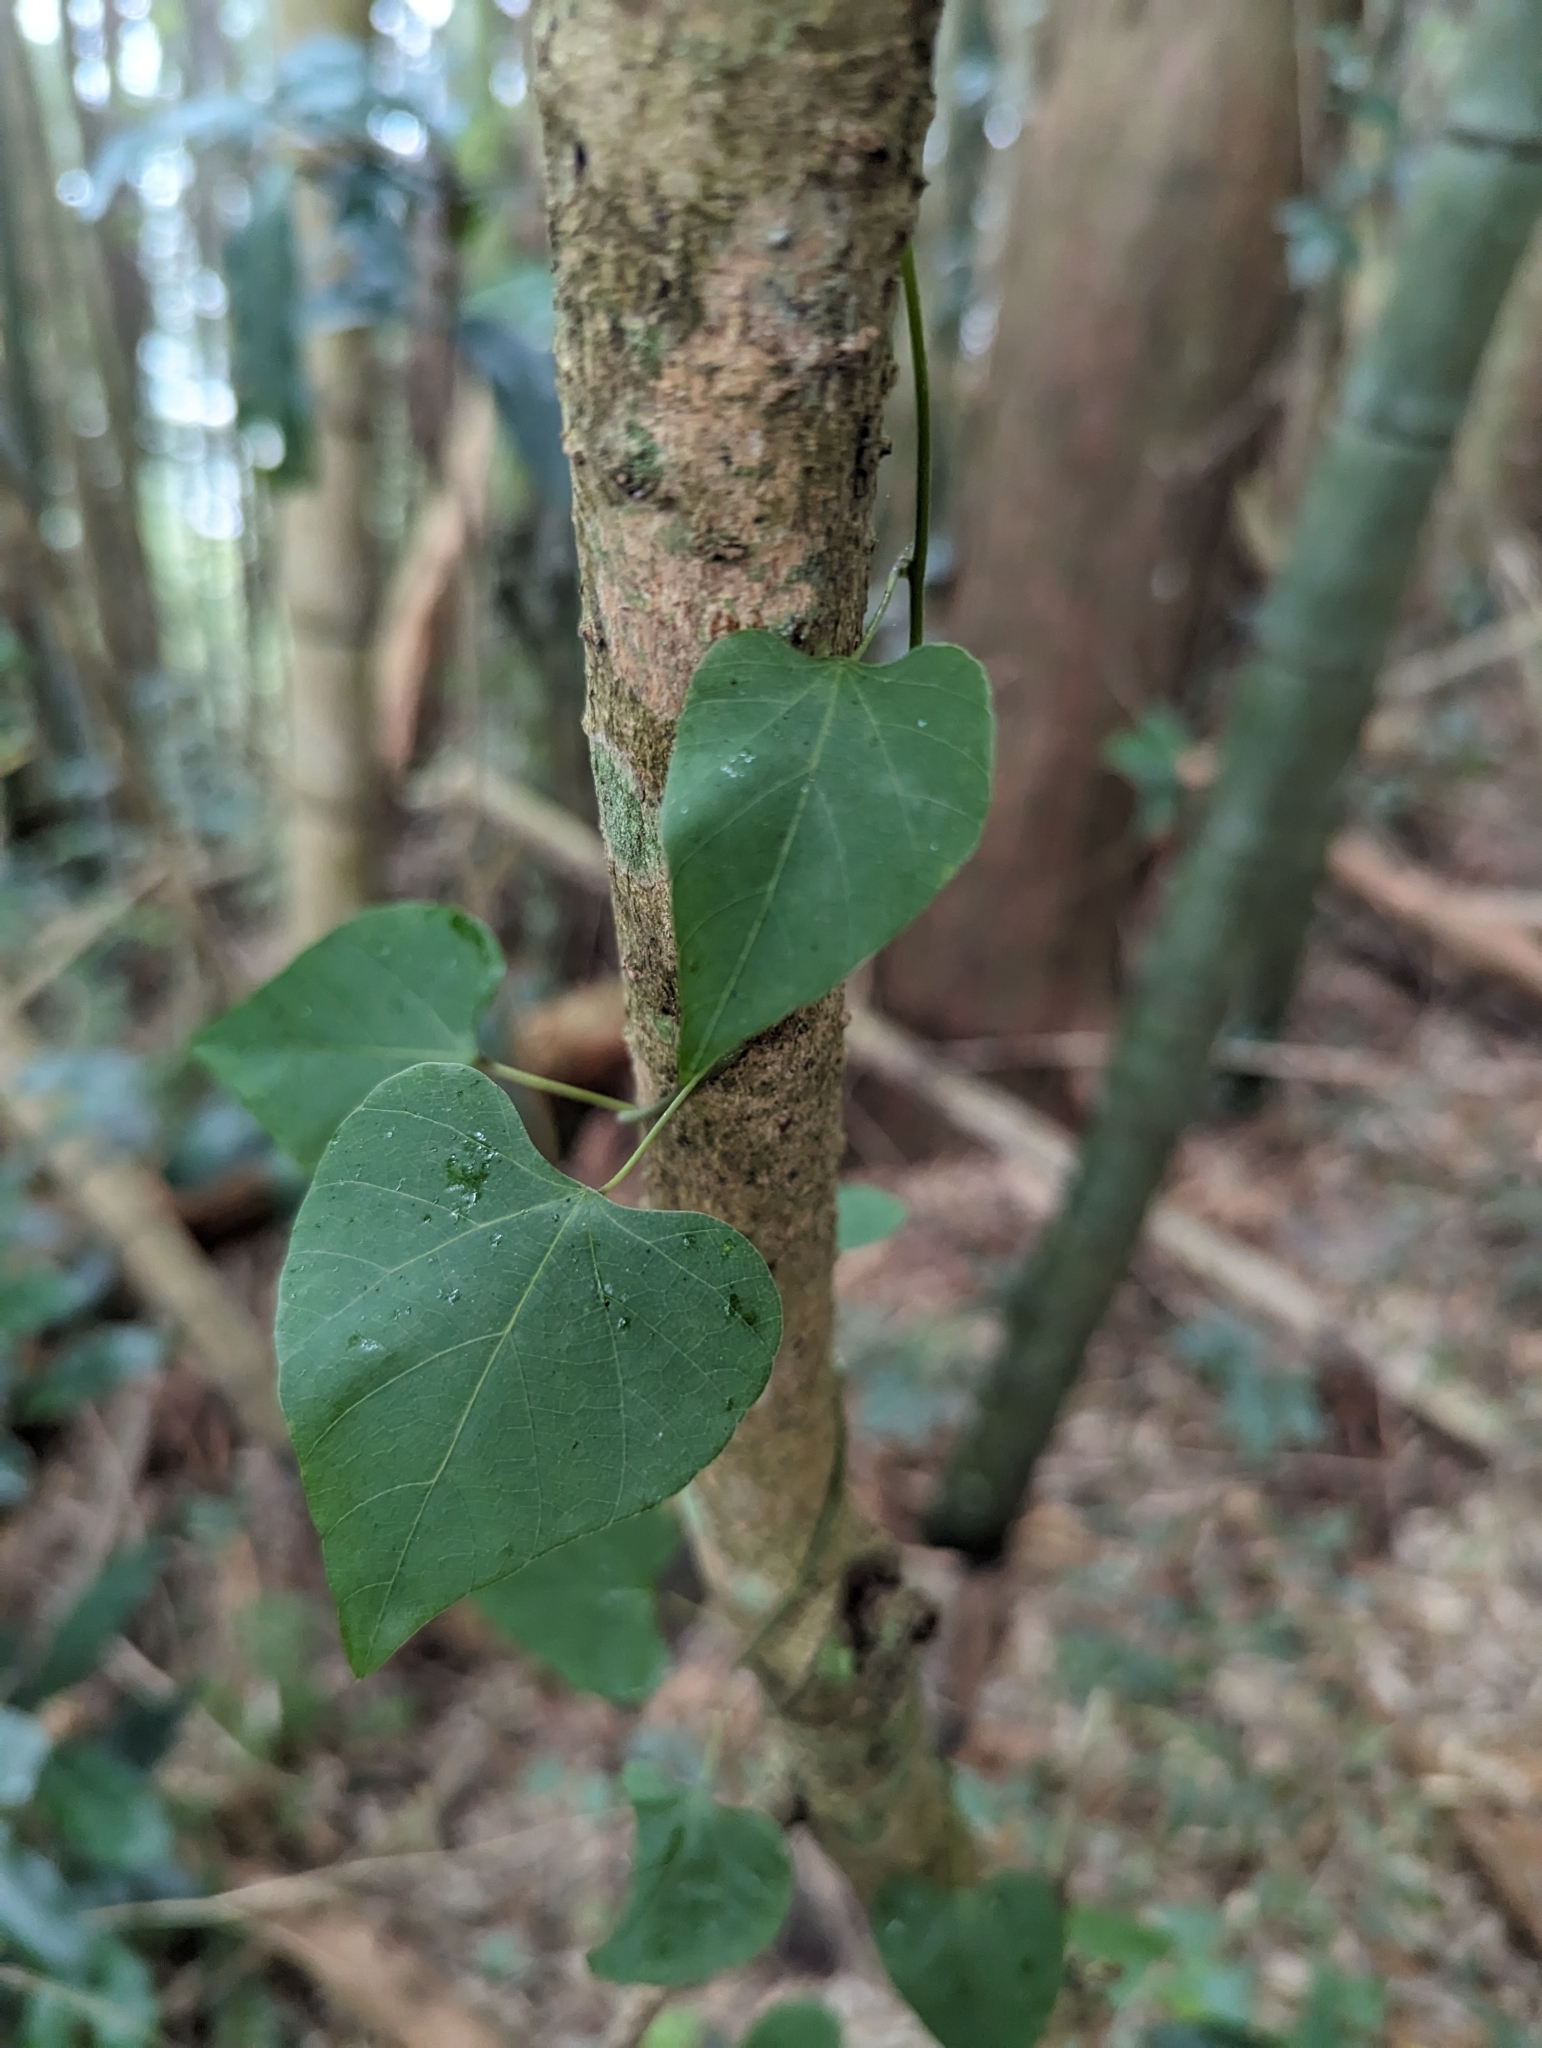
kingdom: Plantae
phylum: Tracheophyta
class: Magnoliopsida
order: Ranunculales
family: Menispermaceae
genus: Pericampylus
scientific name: Pericampylus glaucus
